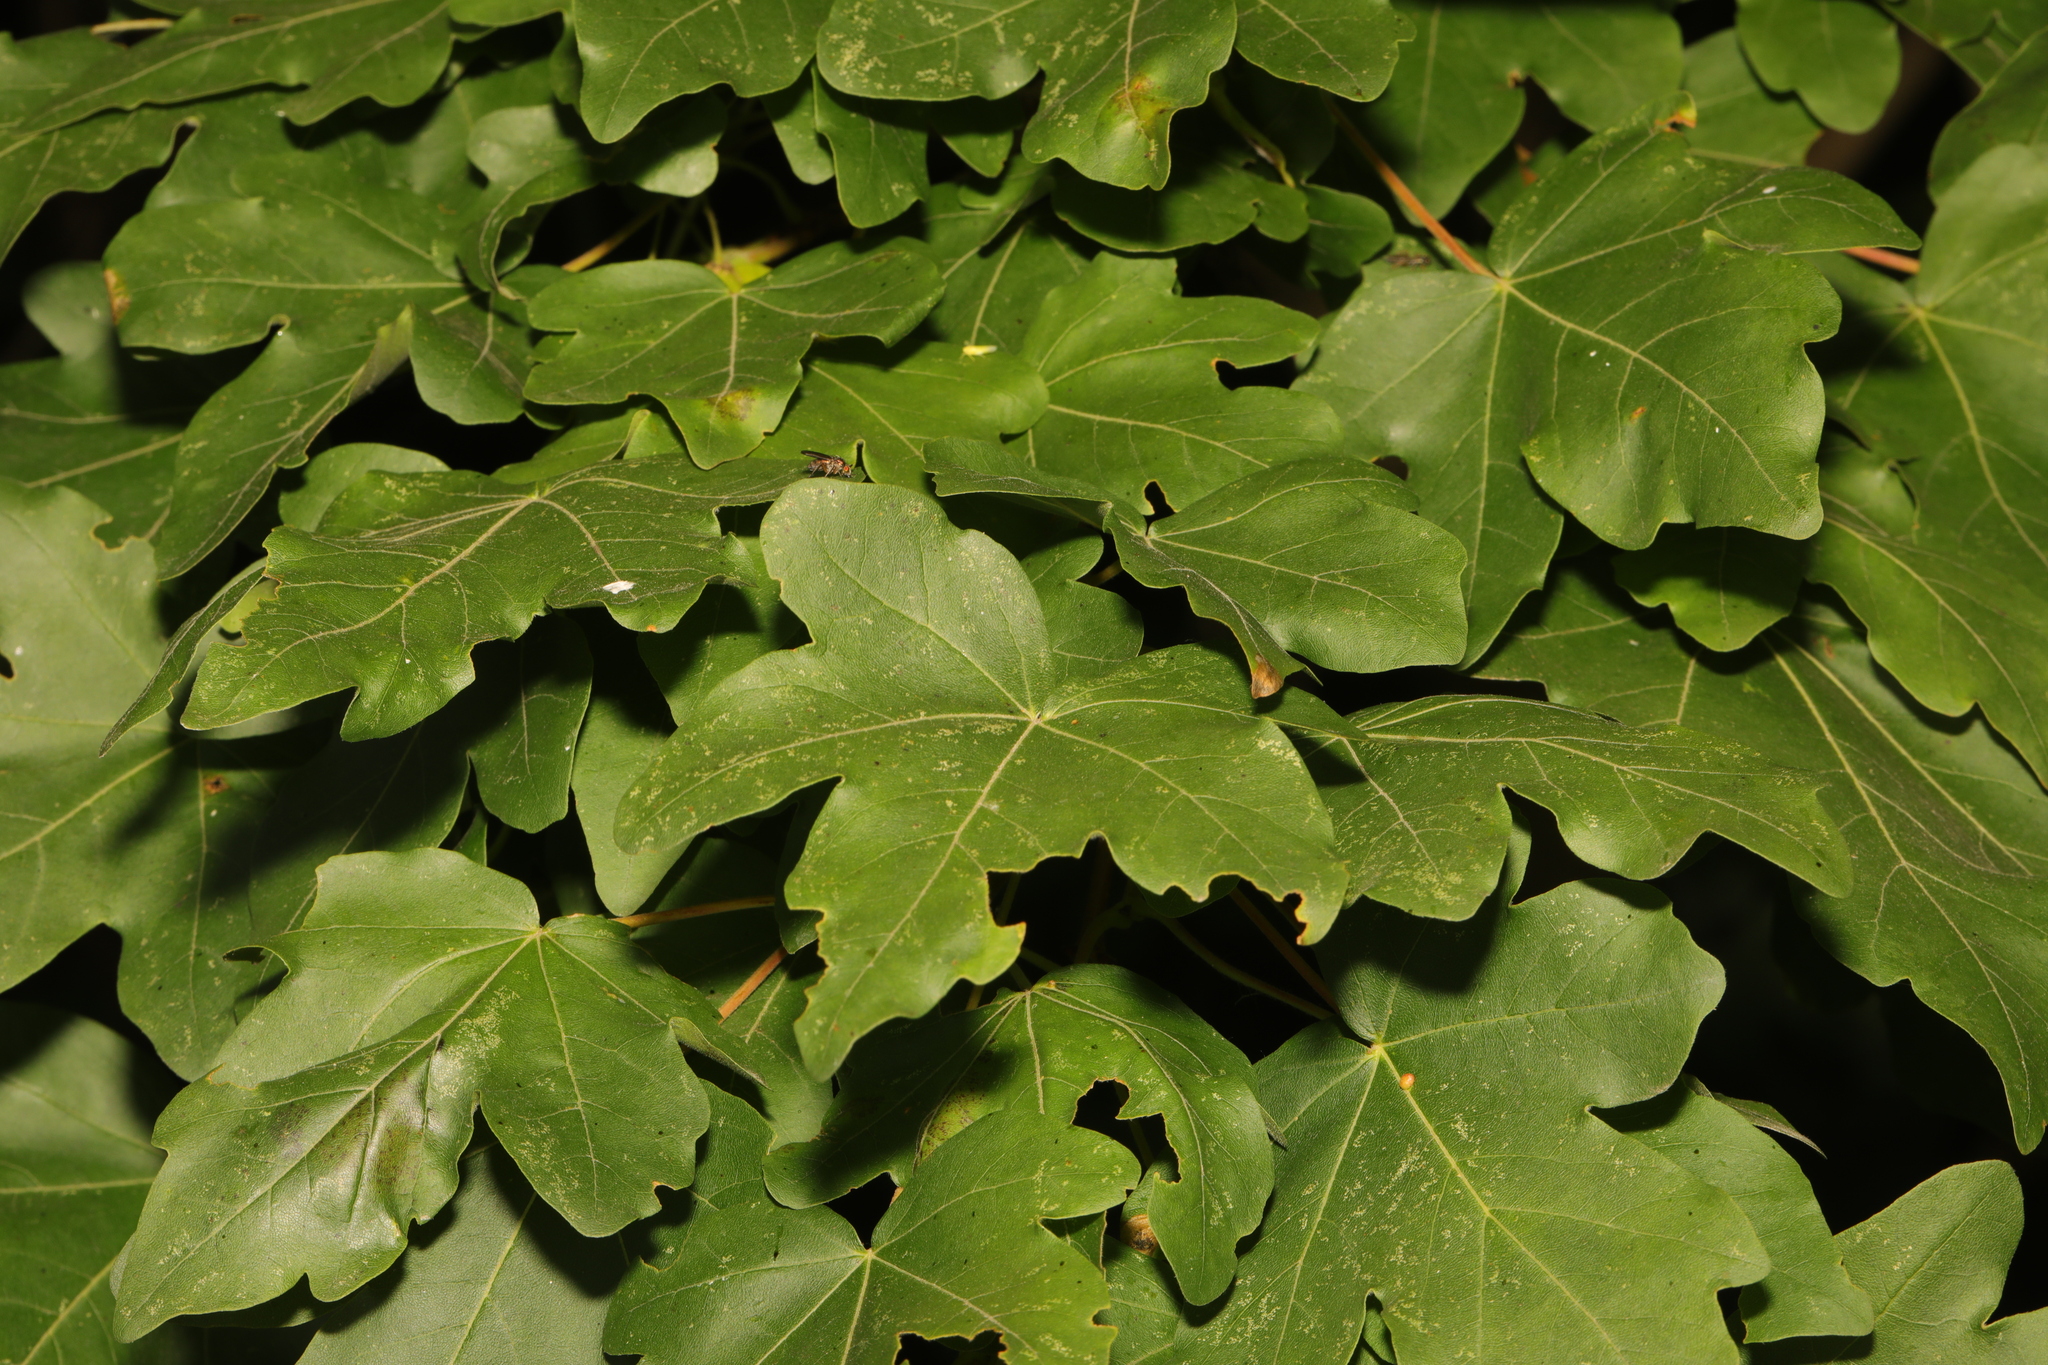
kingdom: Plantae
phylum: Tracheophyta
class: Magnoliopsida
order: Sapindales
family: Sapindaceae
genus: Acer
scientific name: Acer campestre
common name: Field maple
